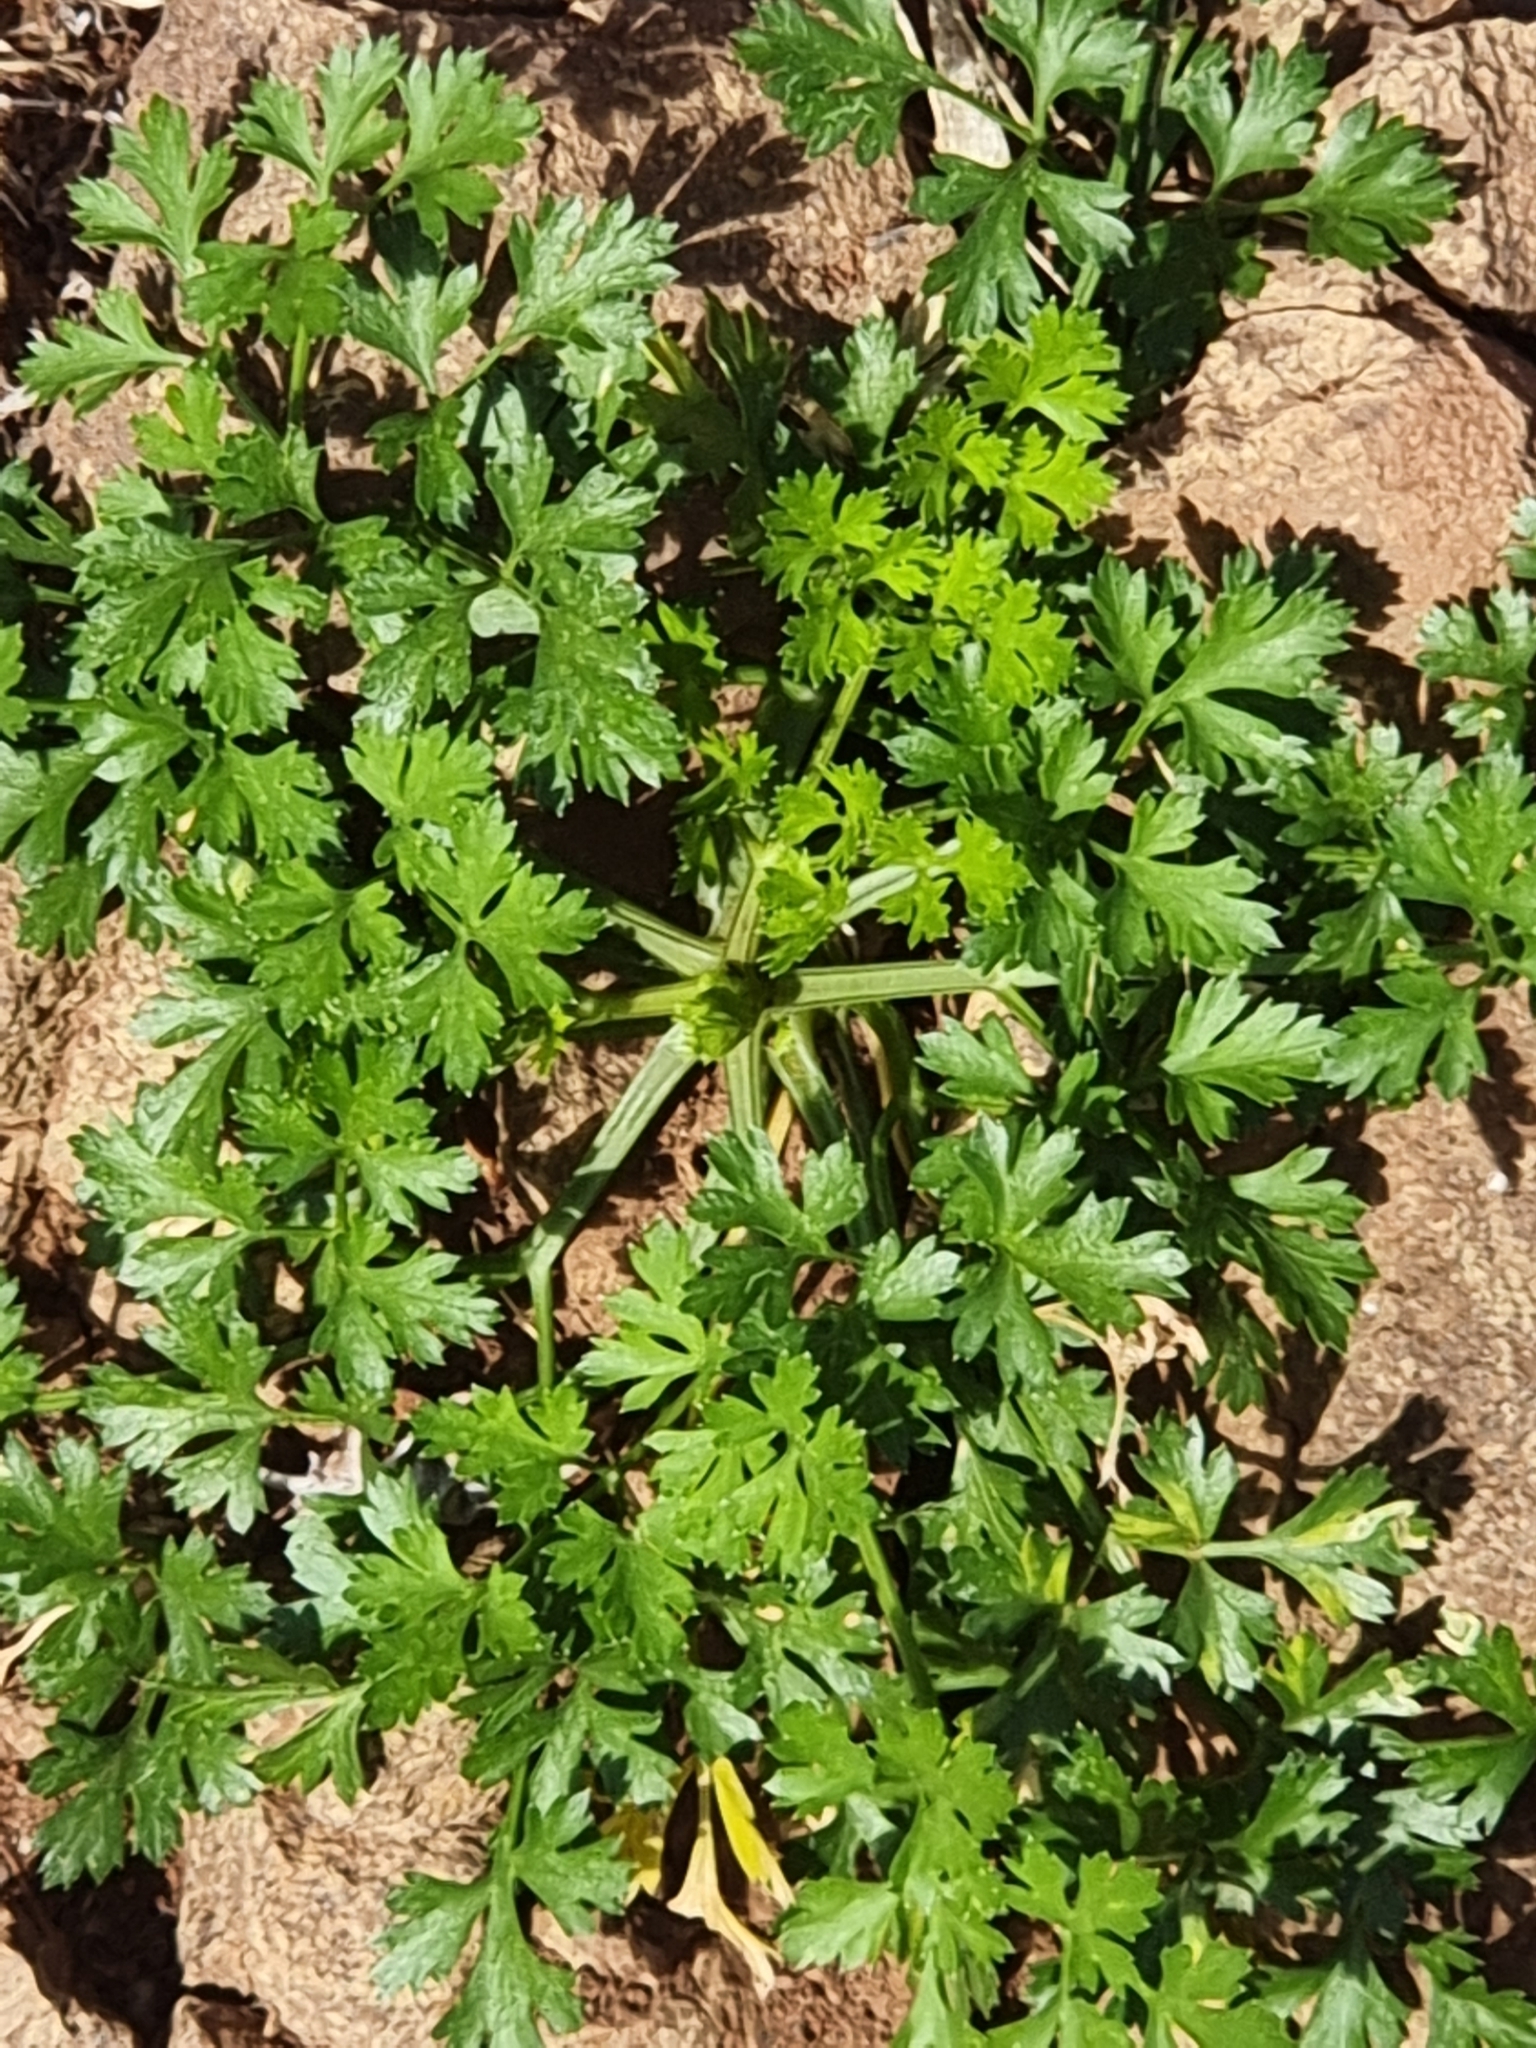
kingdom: Plantae
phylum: Tracheophyta
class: Magnoliopsida
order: Apiales
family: Apiaceae
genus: Petroselinum
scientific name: Petroselinum crispum
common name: Parsley
